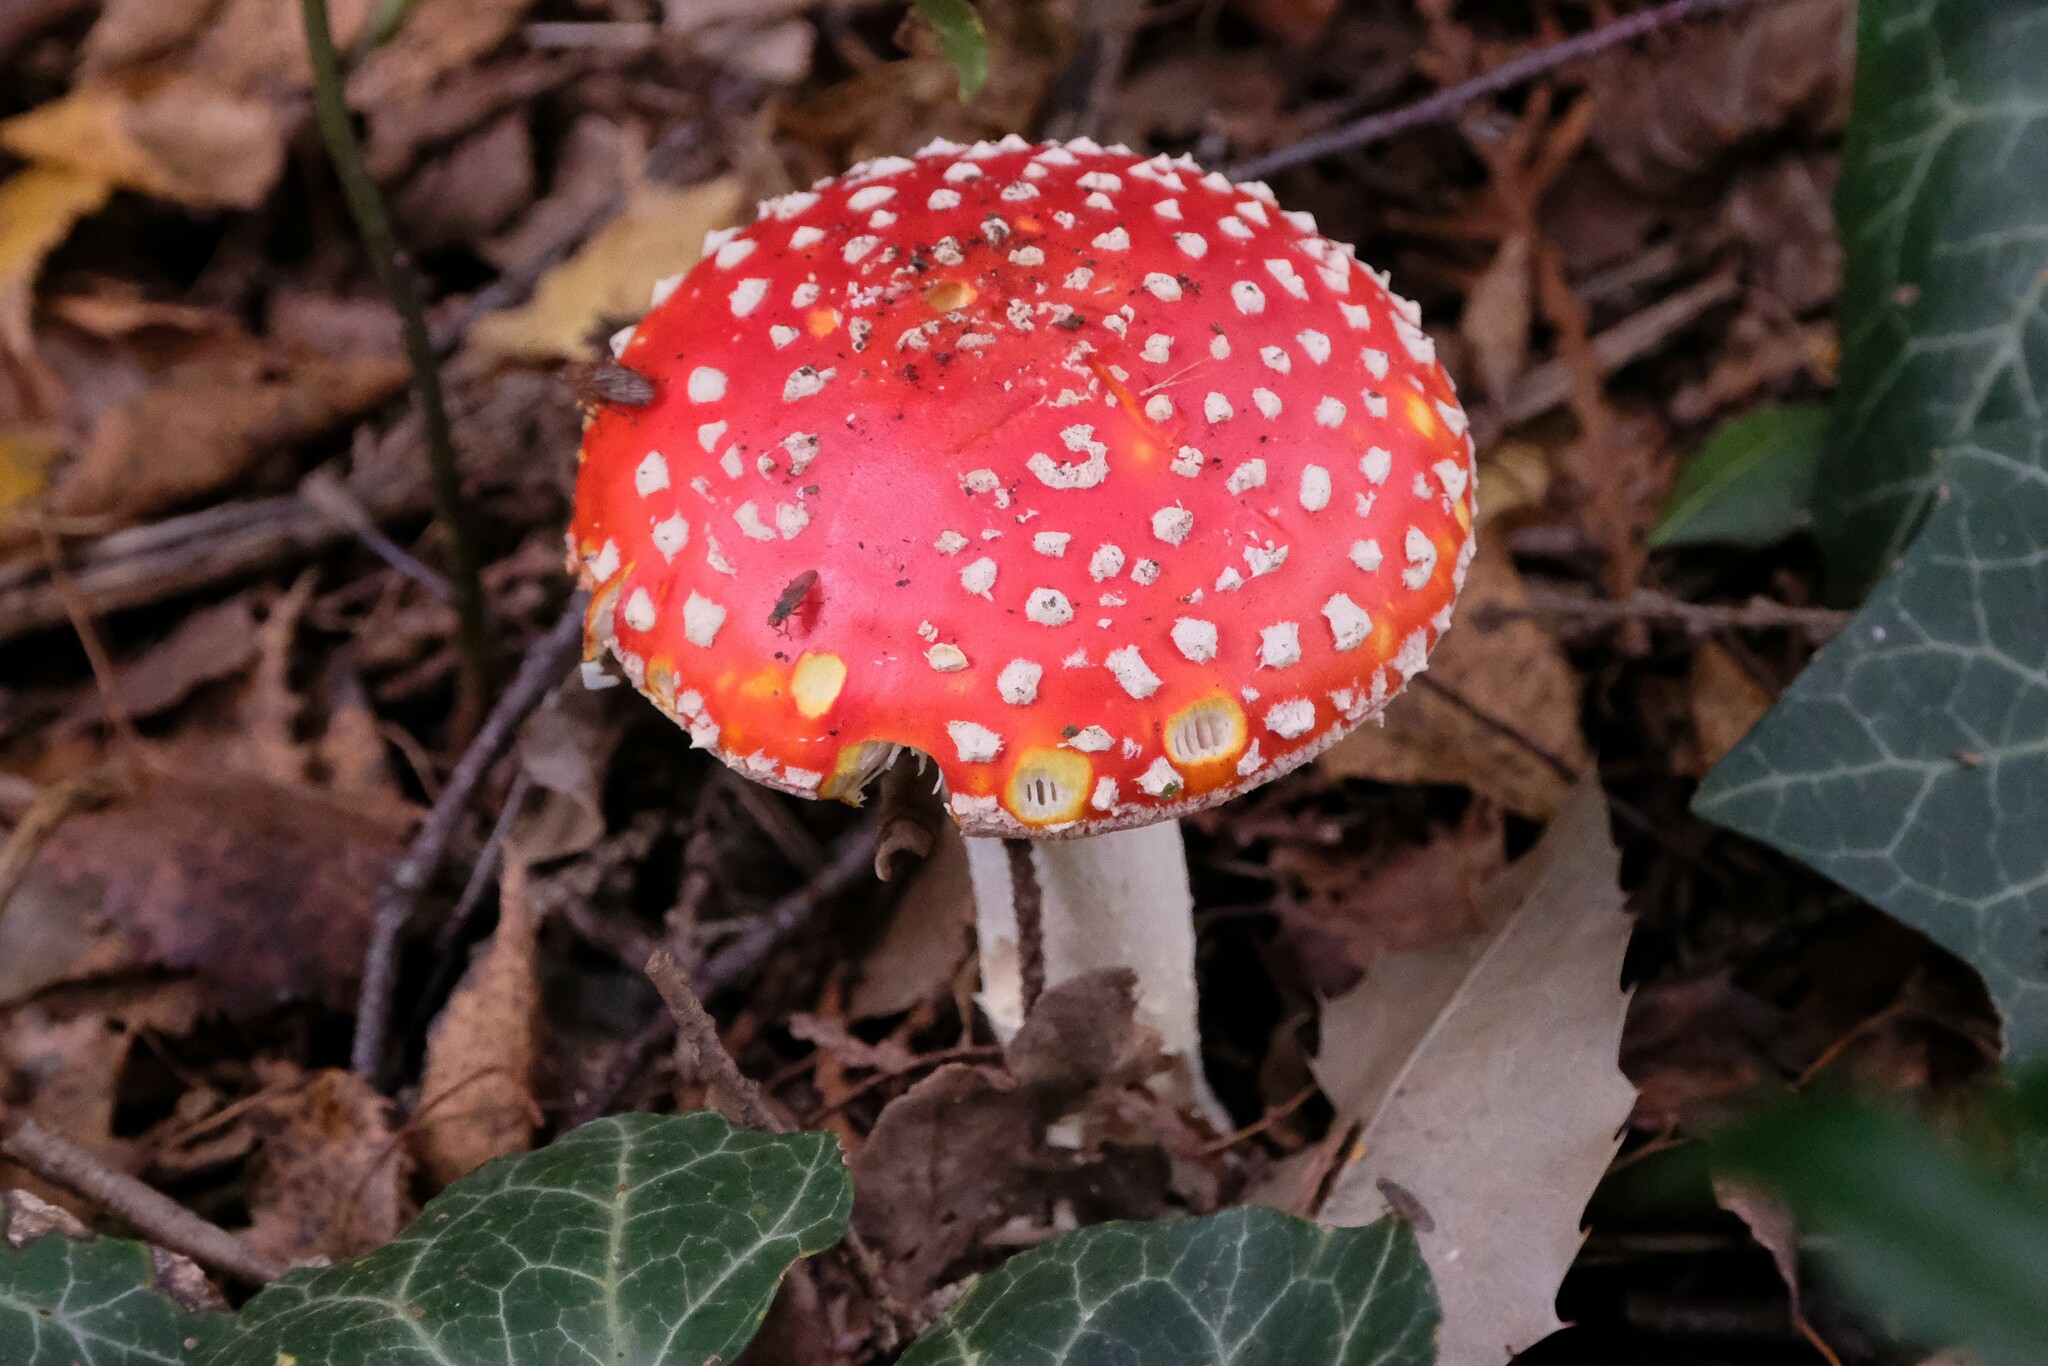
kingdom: Fungi
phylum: Basidiomycota
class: Agaricomycetes
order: Agaricales
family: Amanitaceae
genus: Amanita
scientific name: Amanita muscaria
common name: Fly agaric
